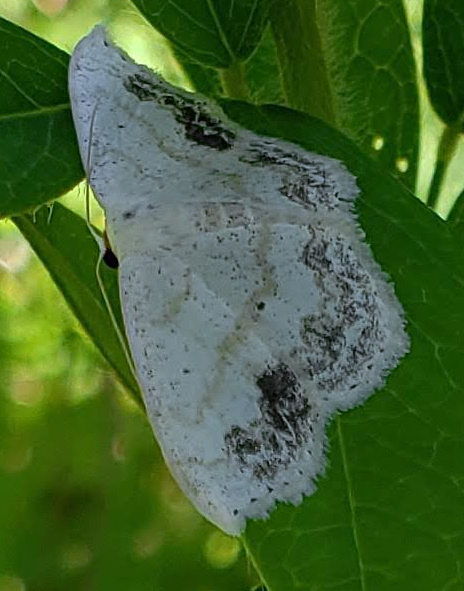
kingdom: Animalia
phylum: Arthropoda
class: Insecta
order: Lepidoptera
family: Geometridae
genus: Scopula
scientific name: Scopula limboundata
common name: Large lace border
